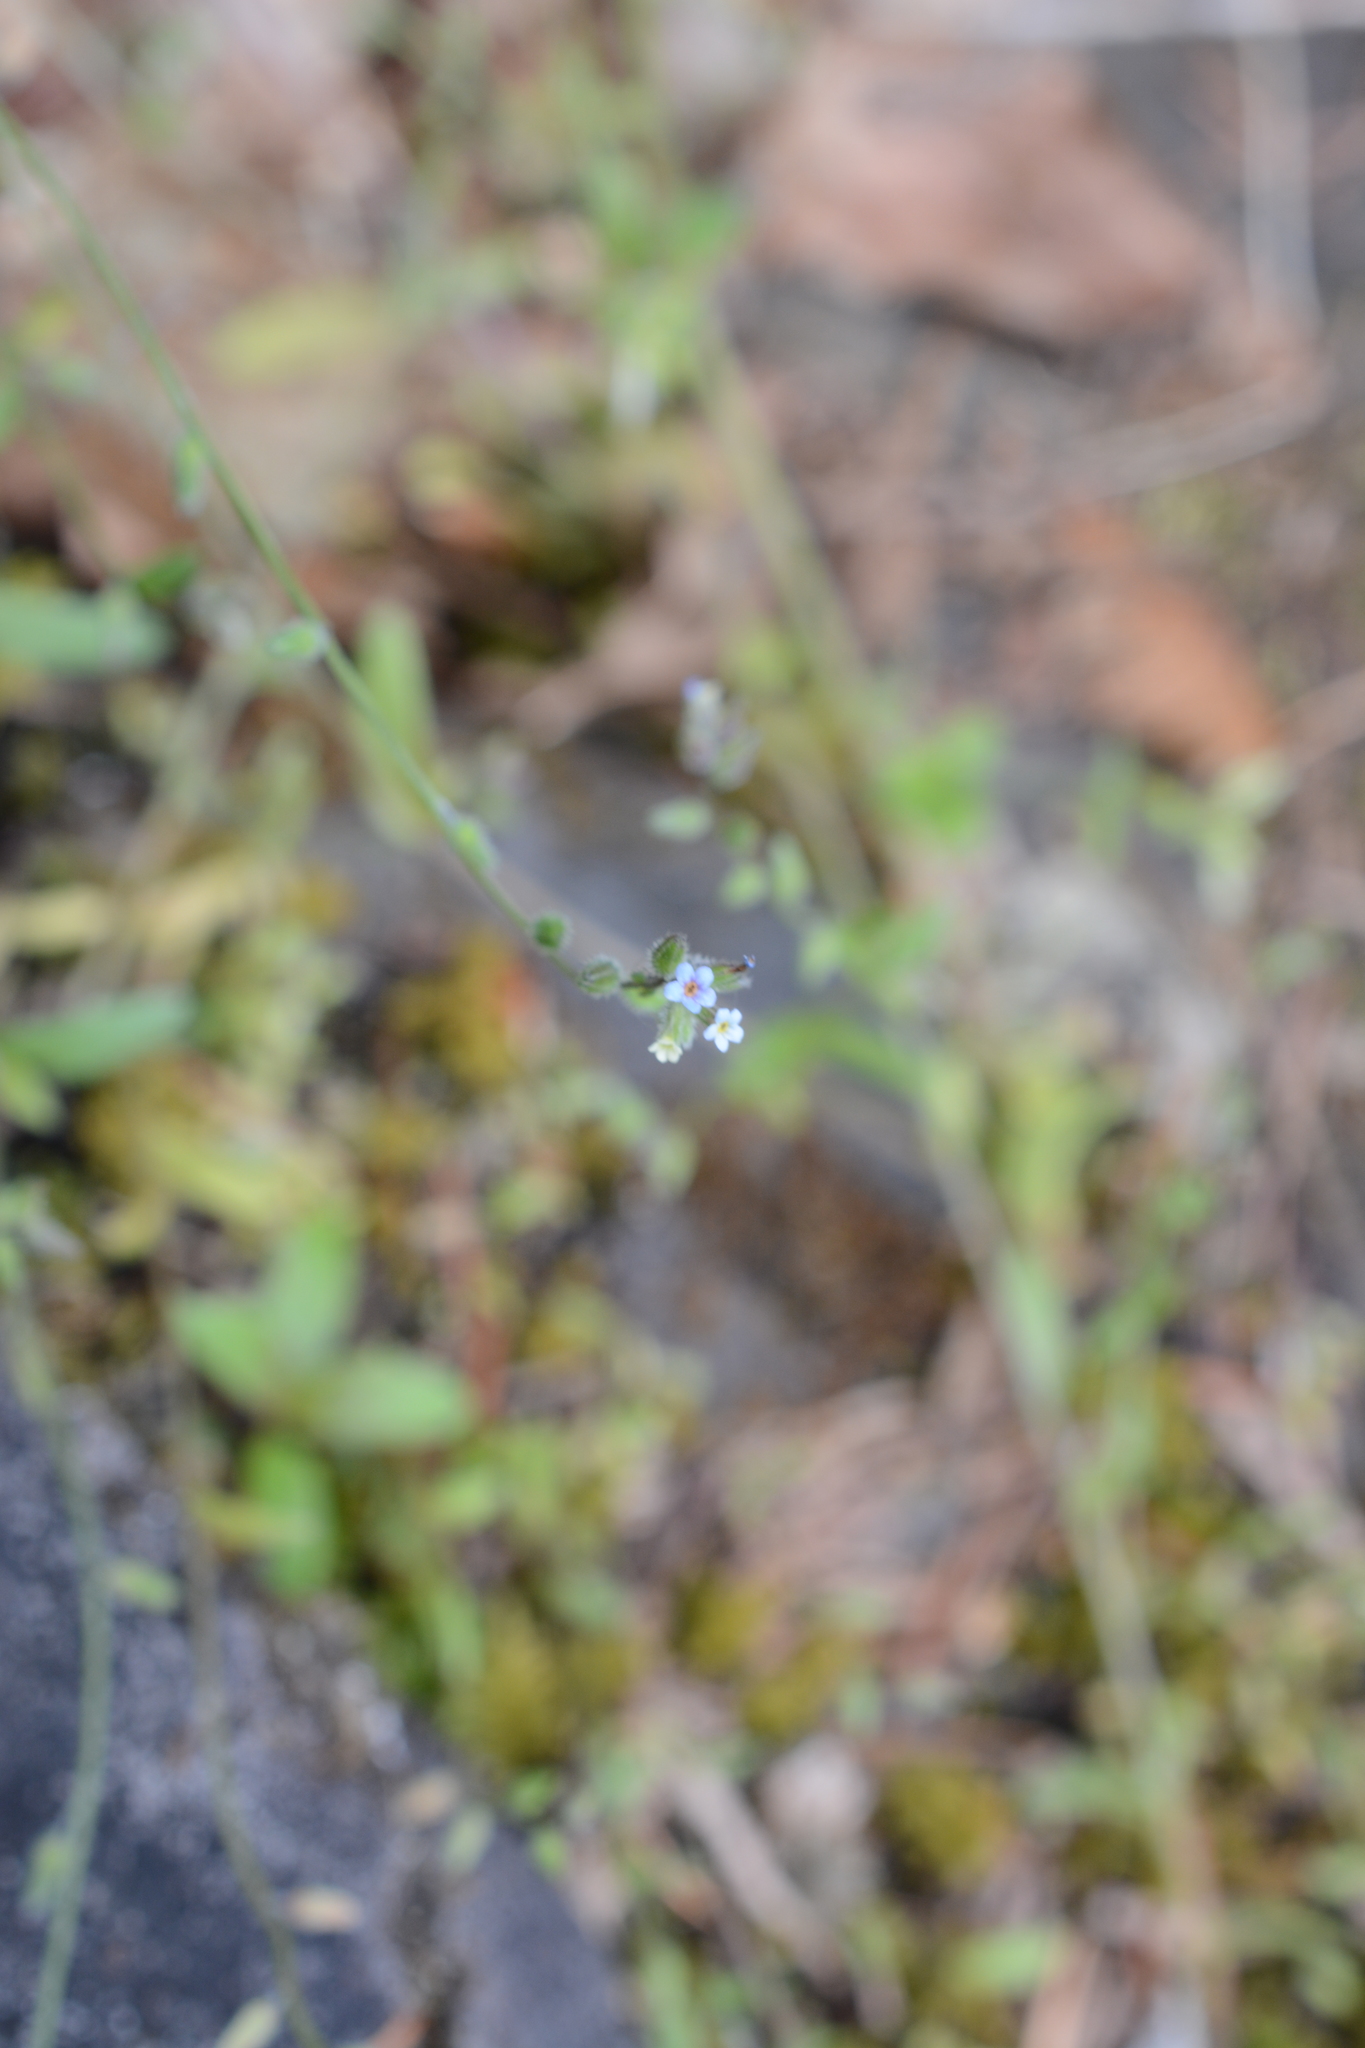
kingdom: Plantae
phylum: Tracheophyta
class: Magnoliopsida
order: Boraginales
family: Boraginaceae
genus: Myosotis
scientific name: Myosotis discolor
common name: Changing forget-me-not
